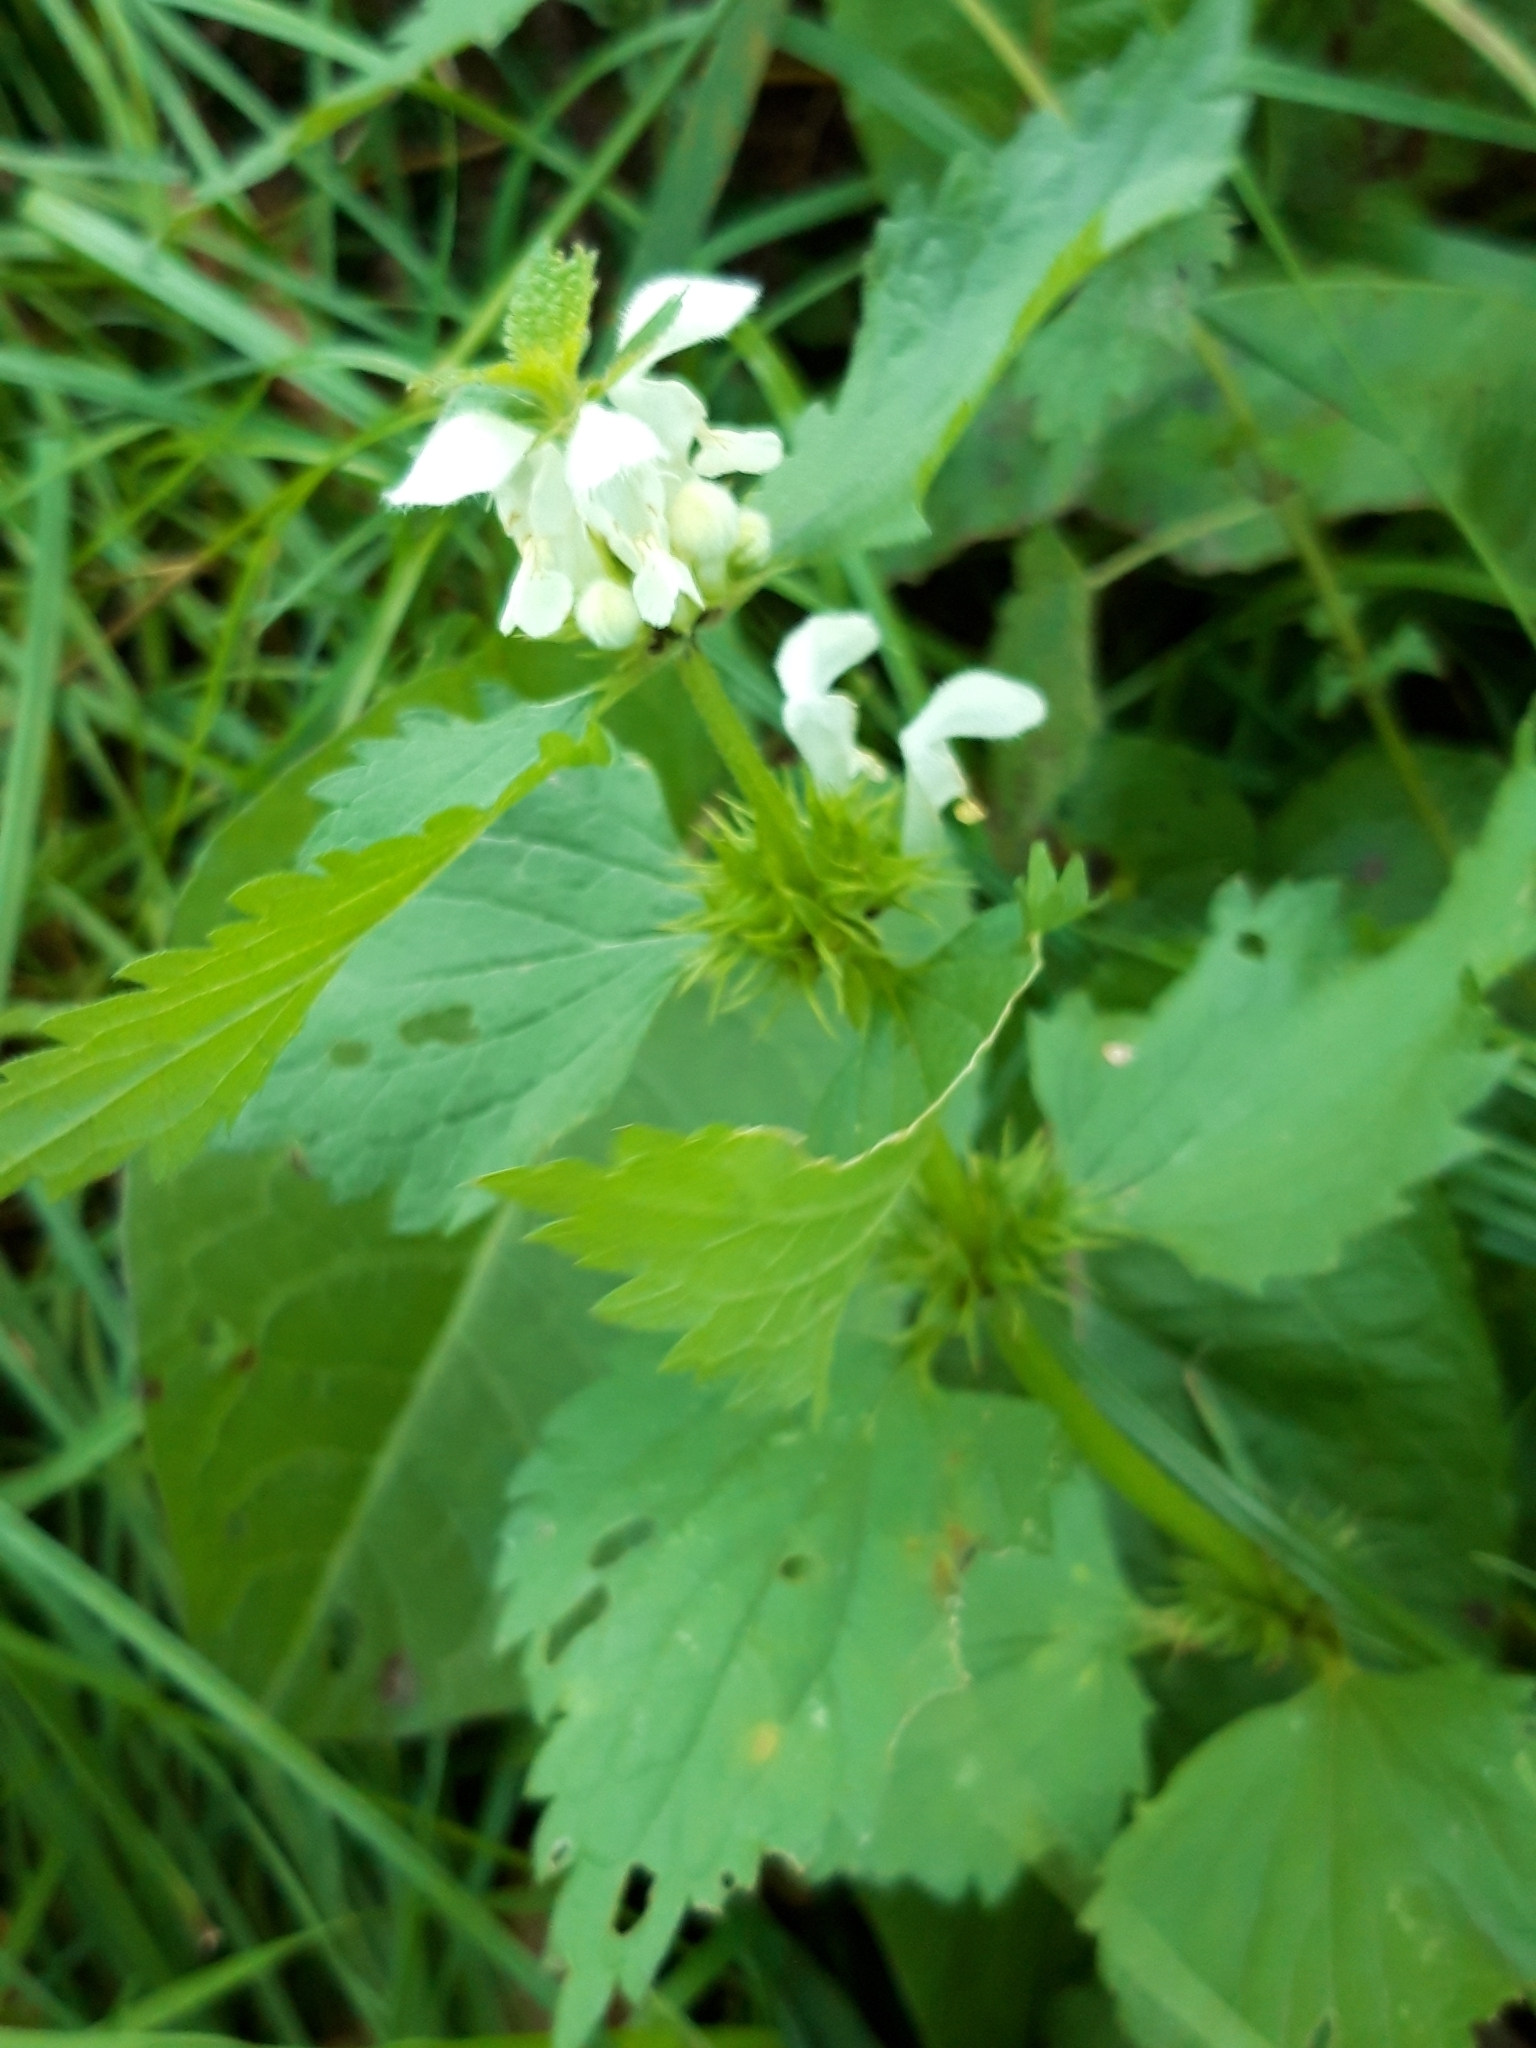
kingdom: Plantae
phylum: Tracheophyta
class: Magnoliopsida
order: Lamiales
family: Lamiaceae
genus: Lamium
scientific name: Lamium album
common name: White dead-nettle
